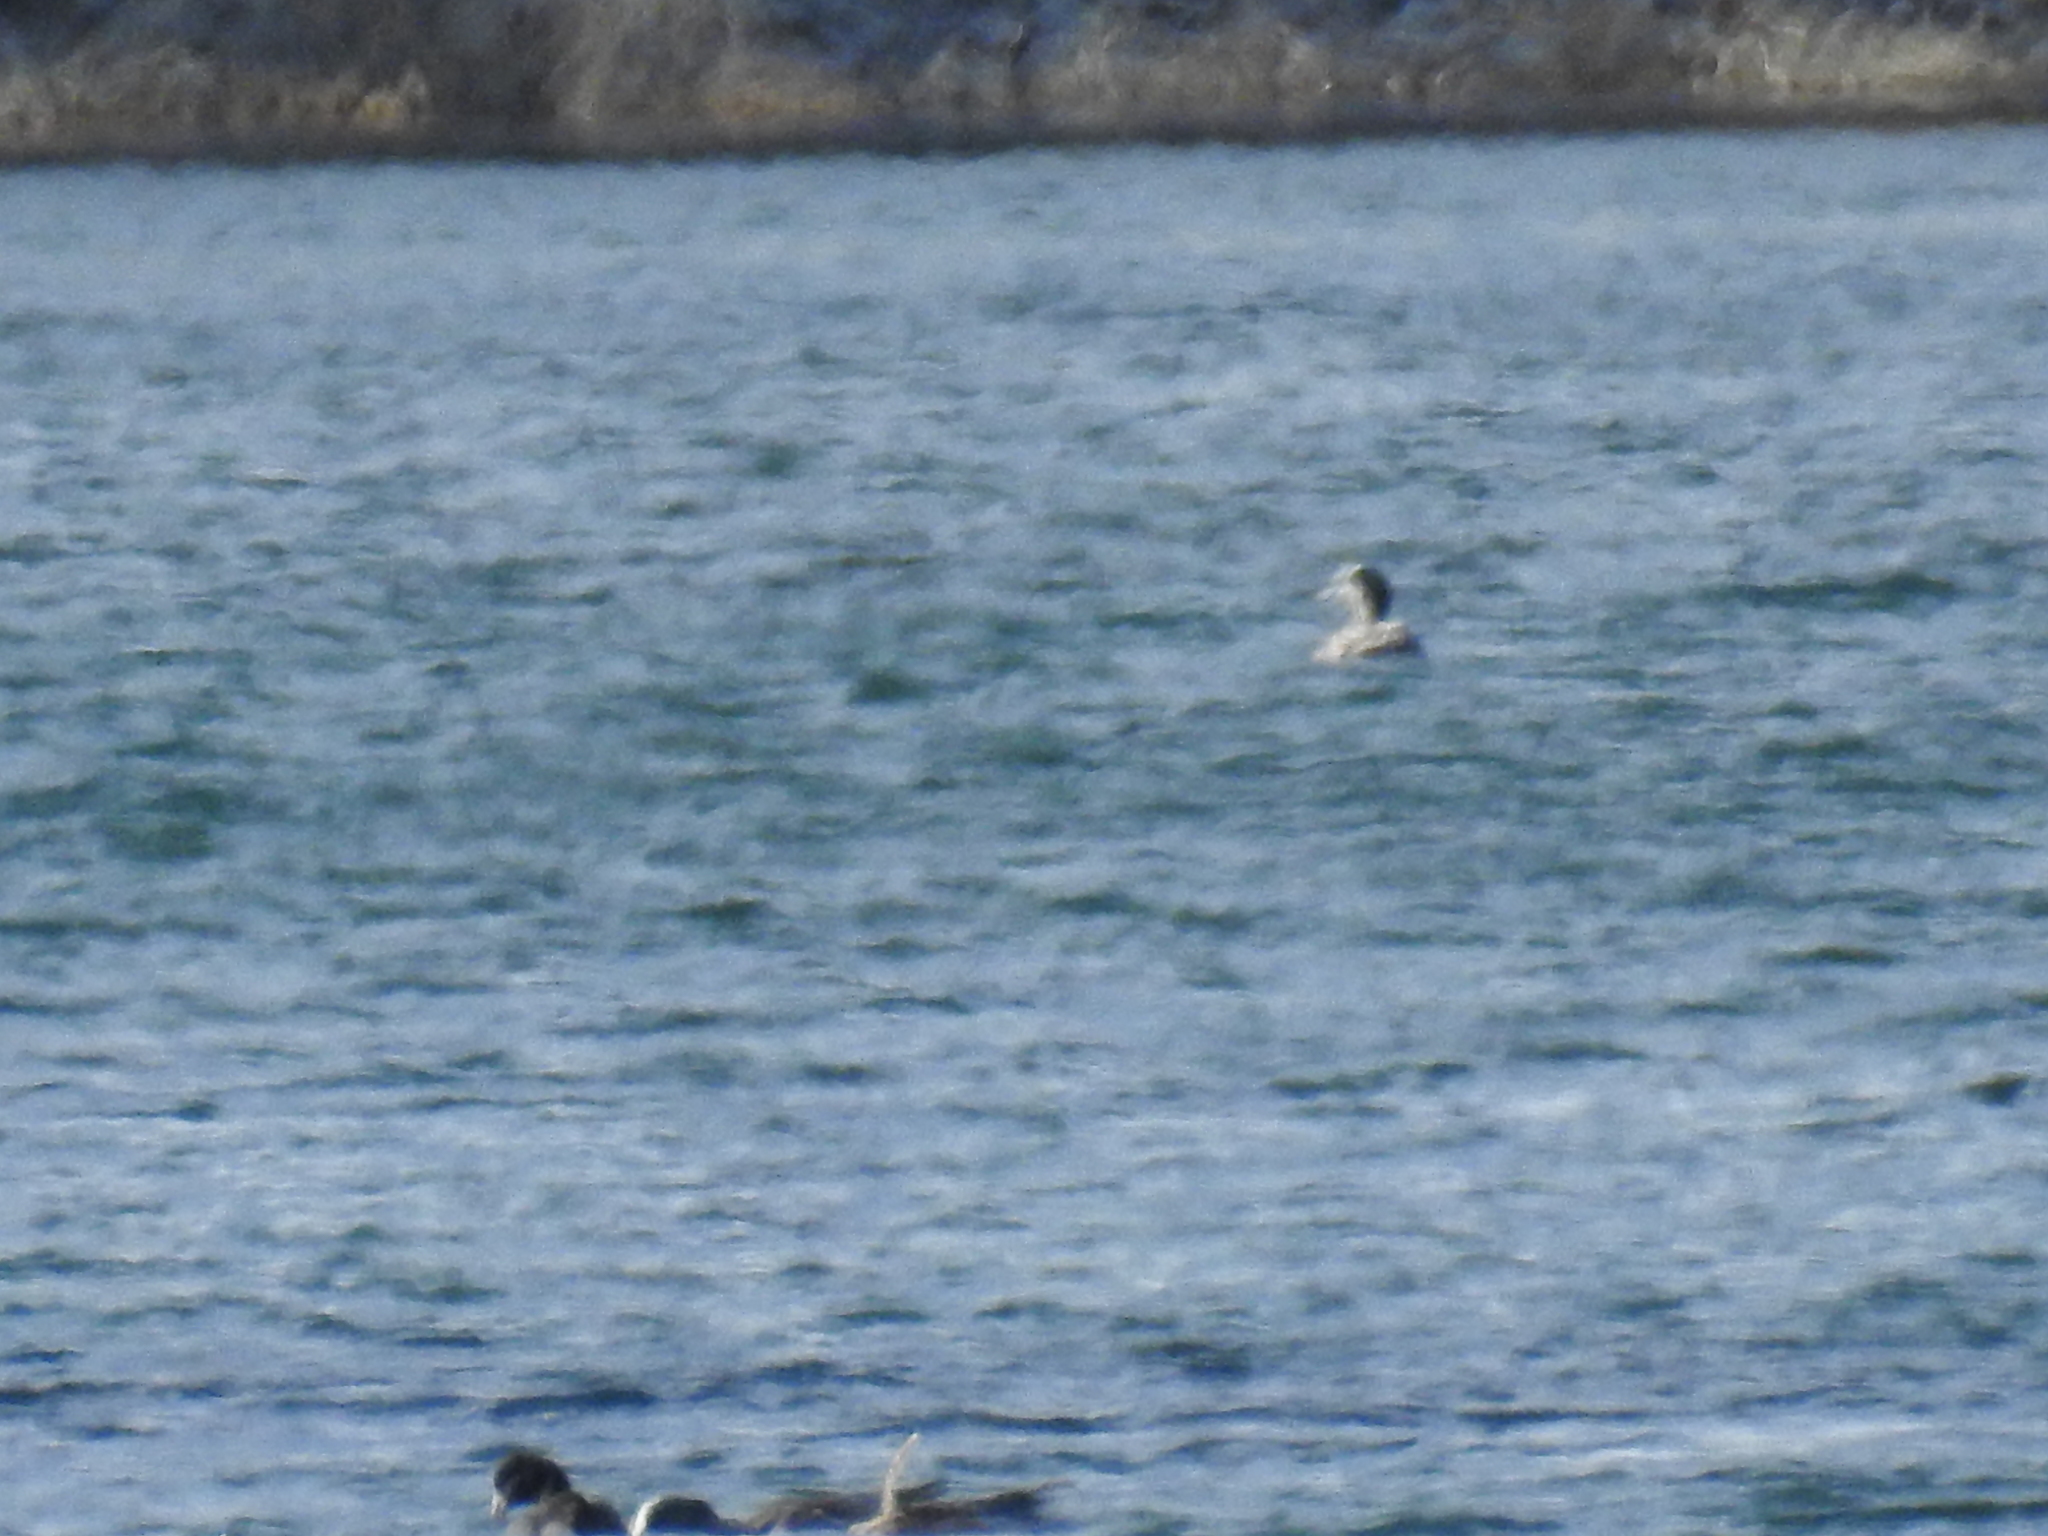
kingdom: Animalia
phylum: Chordata
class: Aves
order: Gruiformes
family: Rallidae
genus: Fulica
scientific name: Fulica americana
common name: American coot
